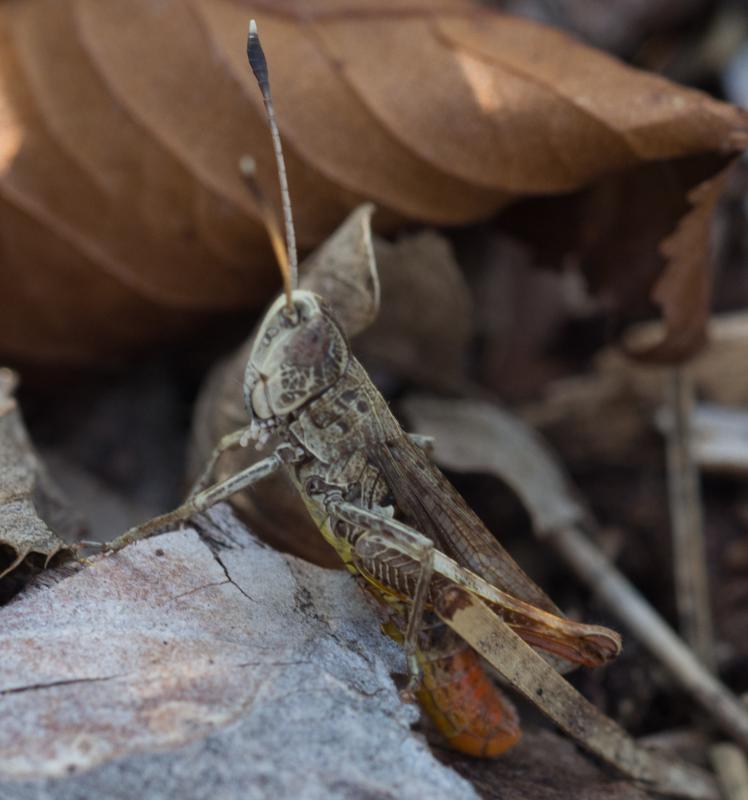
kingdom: Animalia
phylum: Arthropoda
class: Insecta
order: Orthoptera
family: Acrididae
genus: Gomphocerippus
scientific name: Gomphocerippus rufus
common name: Rufous grasshopper
